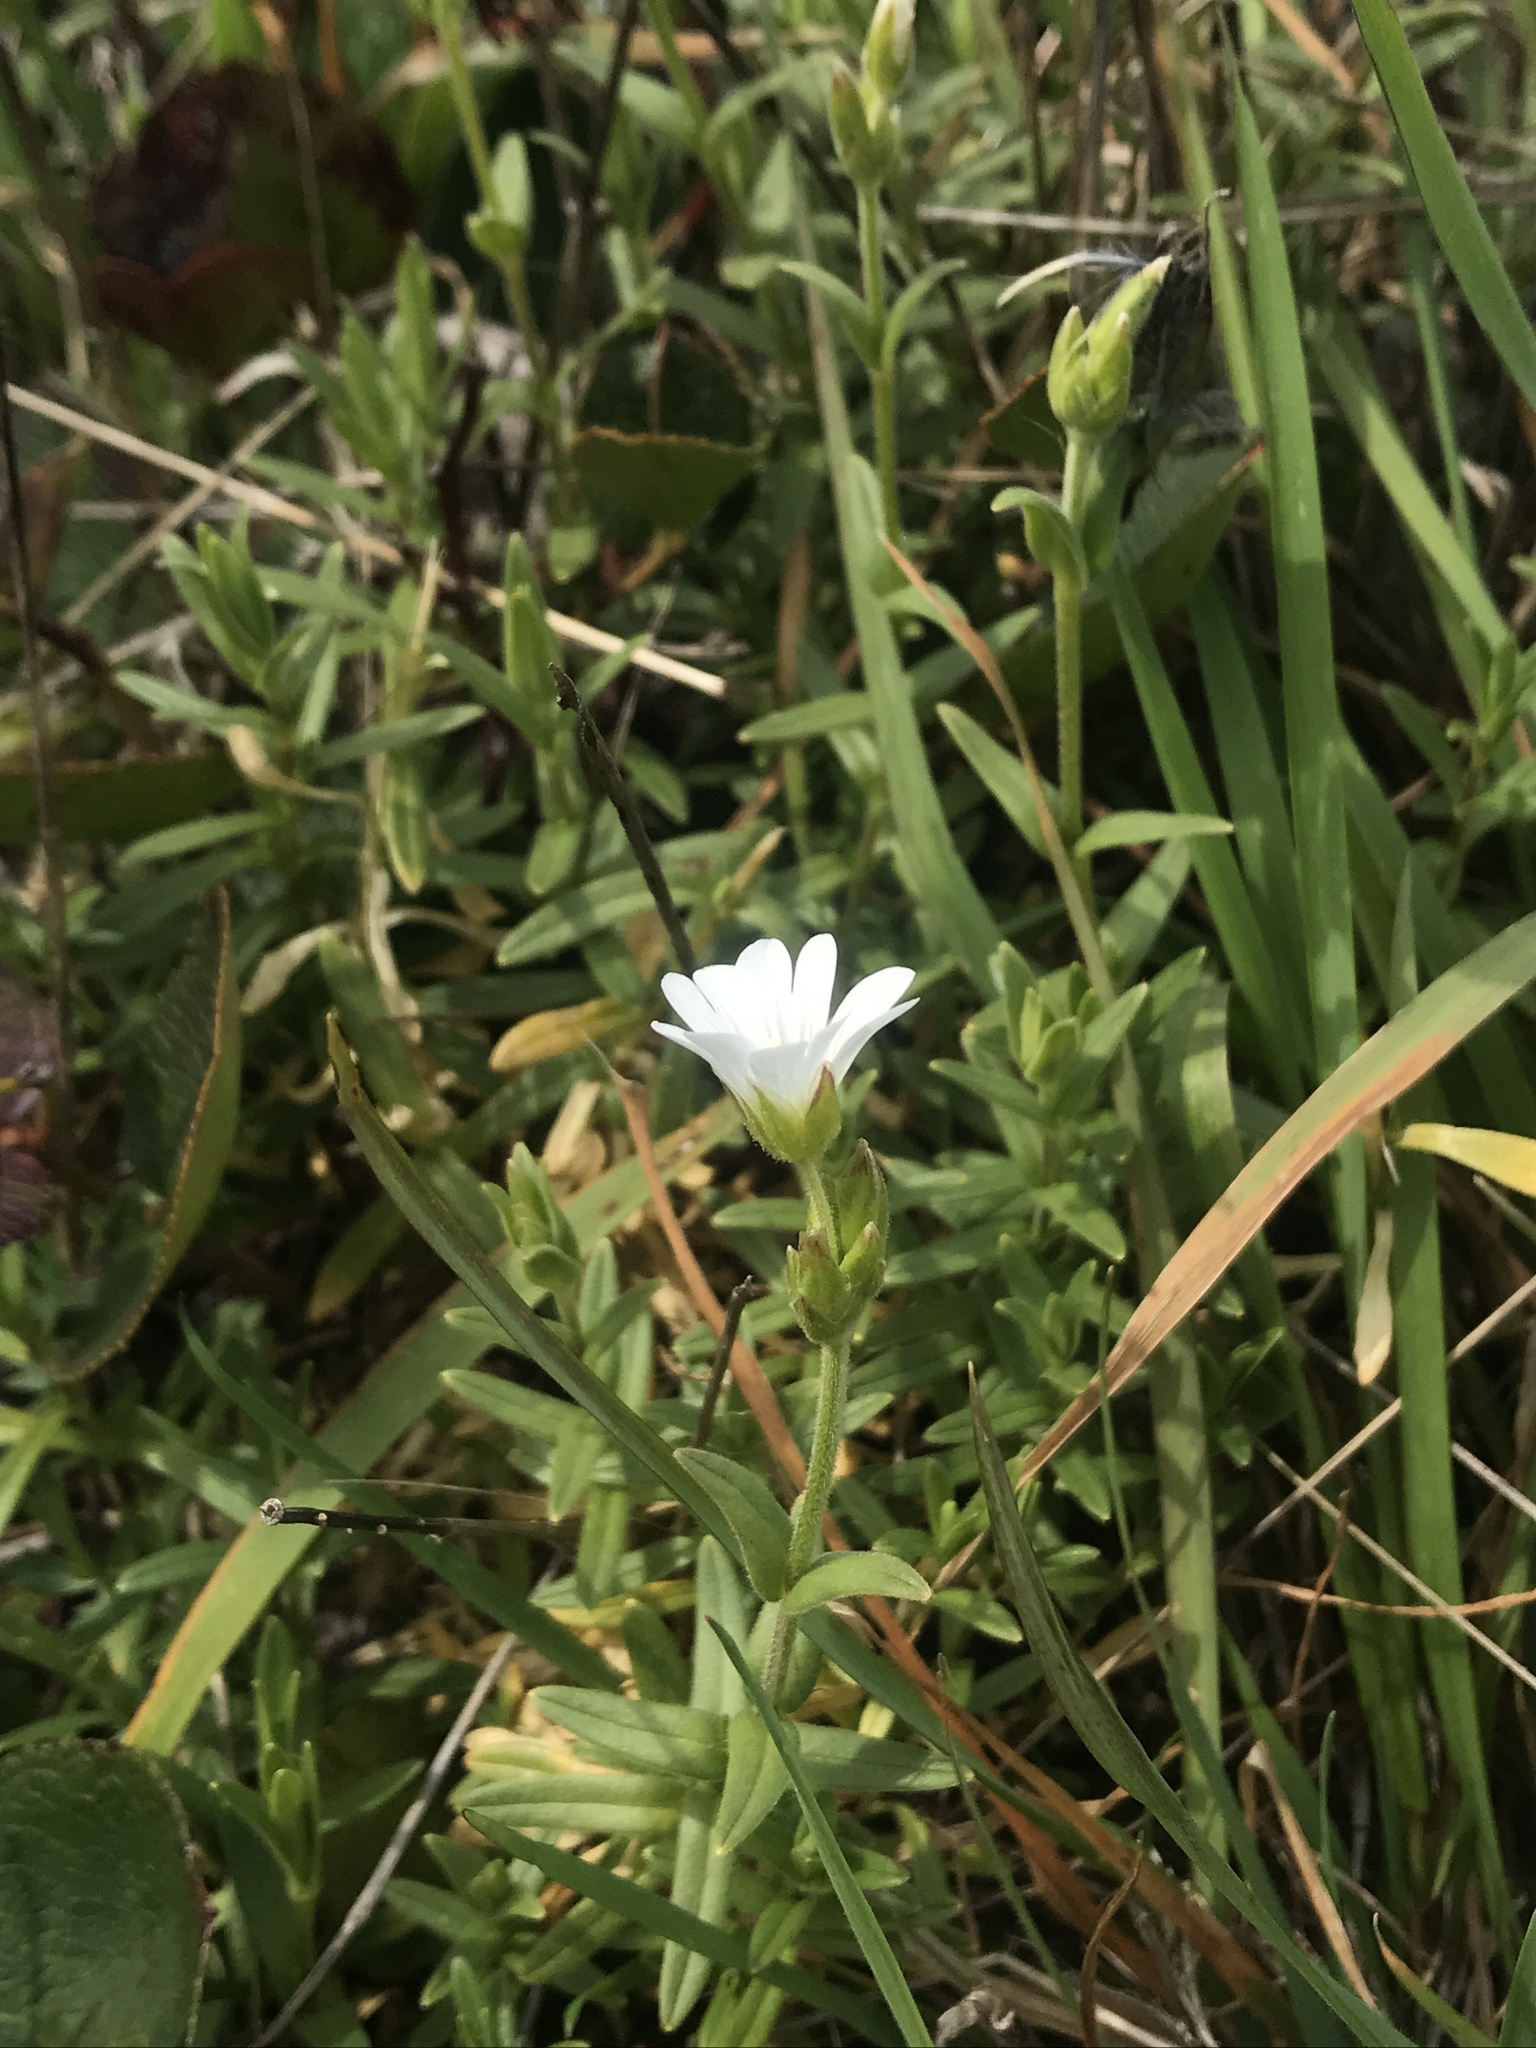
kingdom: Plantae
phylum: Tracheophyta
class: Magnoliopsida
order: Caryophyllales
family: Caryophyllaceae
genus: Cerastium
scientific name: Cerastium arvense
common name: Field mouse-ear
